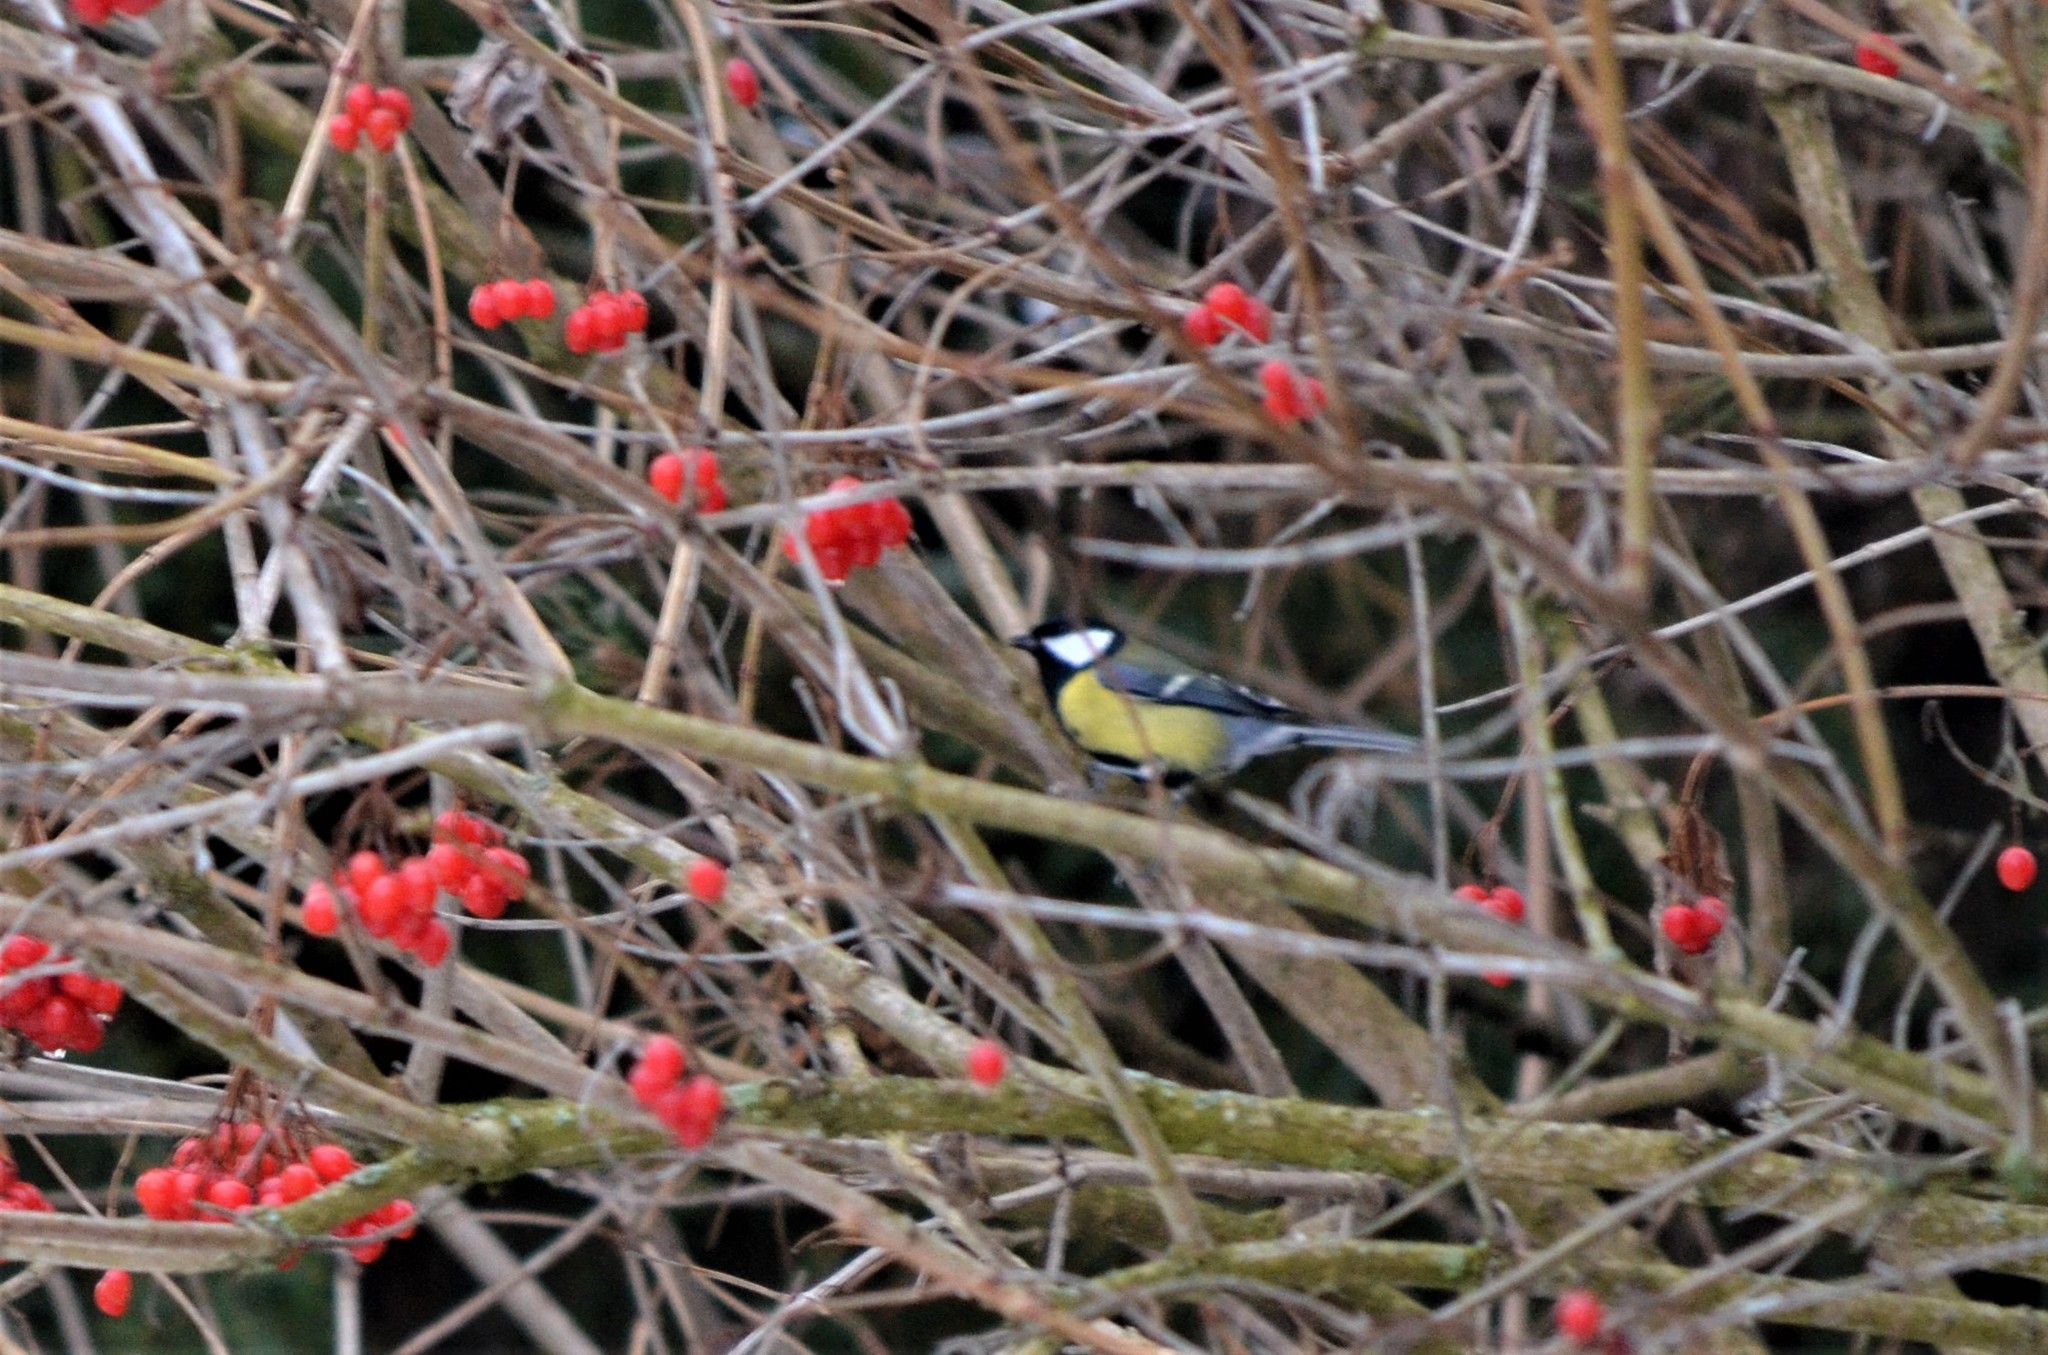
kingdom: Animalia
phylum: Chordata
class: Aves
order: Passeriformes
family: Paridae
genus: Parus
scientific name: Parus major
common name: Great tit
